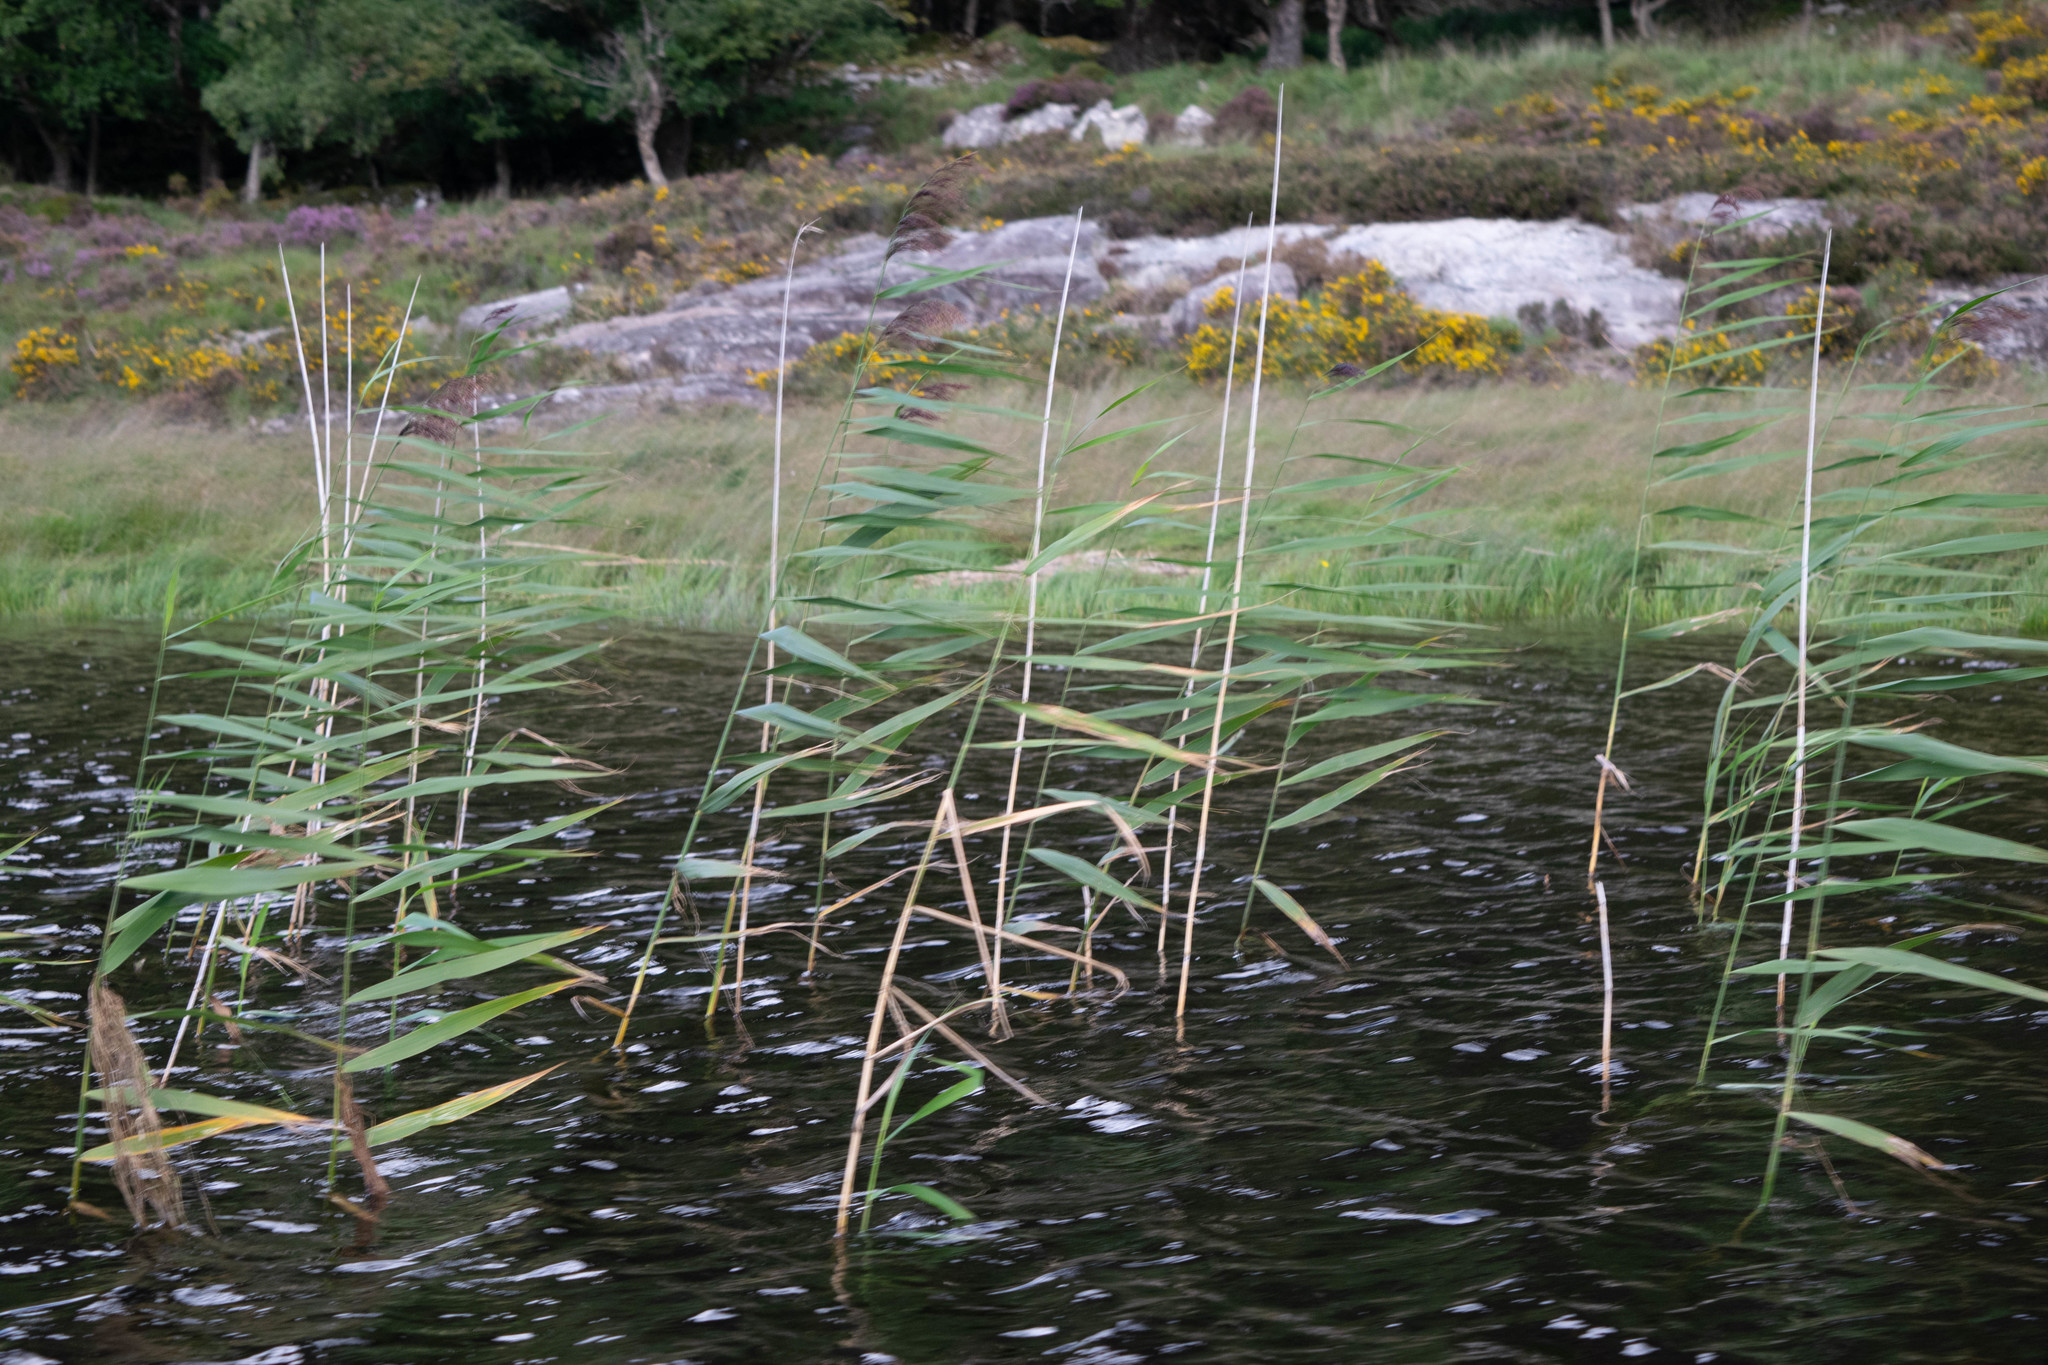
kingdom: Plantae
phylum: Tracheophyta
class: Liliopsida
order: Poales
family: Poaceae
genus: Phragmites
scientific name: Phragmites australis
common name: Common reed
